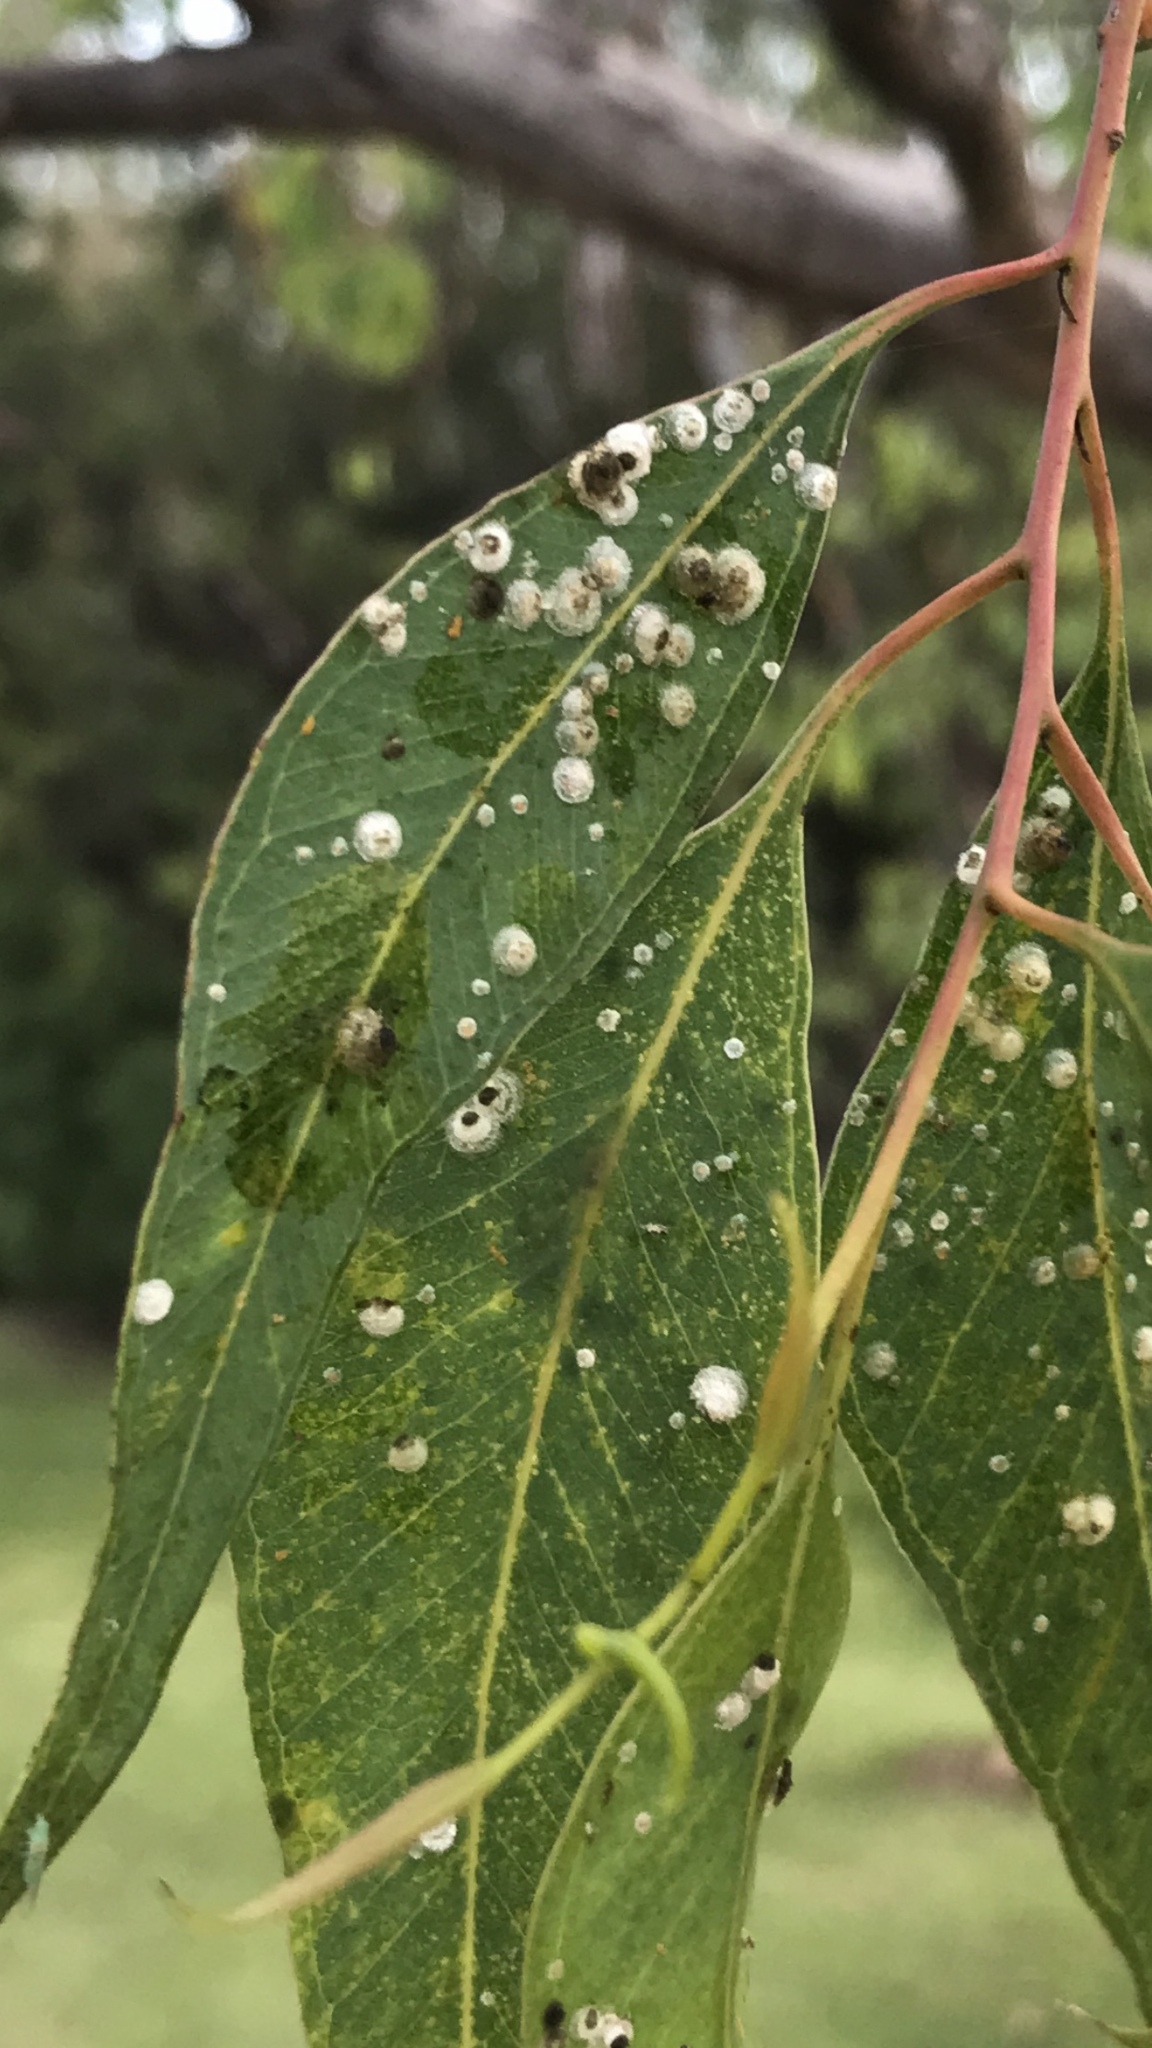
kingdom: Animalia
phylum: Arthropoda
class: Insecta
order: Hemiptera
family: Aphalaridae
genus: Glycaspis
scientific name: Glycaspis brimblecombei
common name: Red gum lerp psyllid
